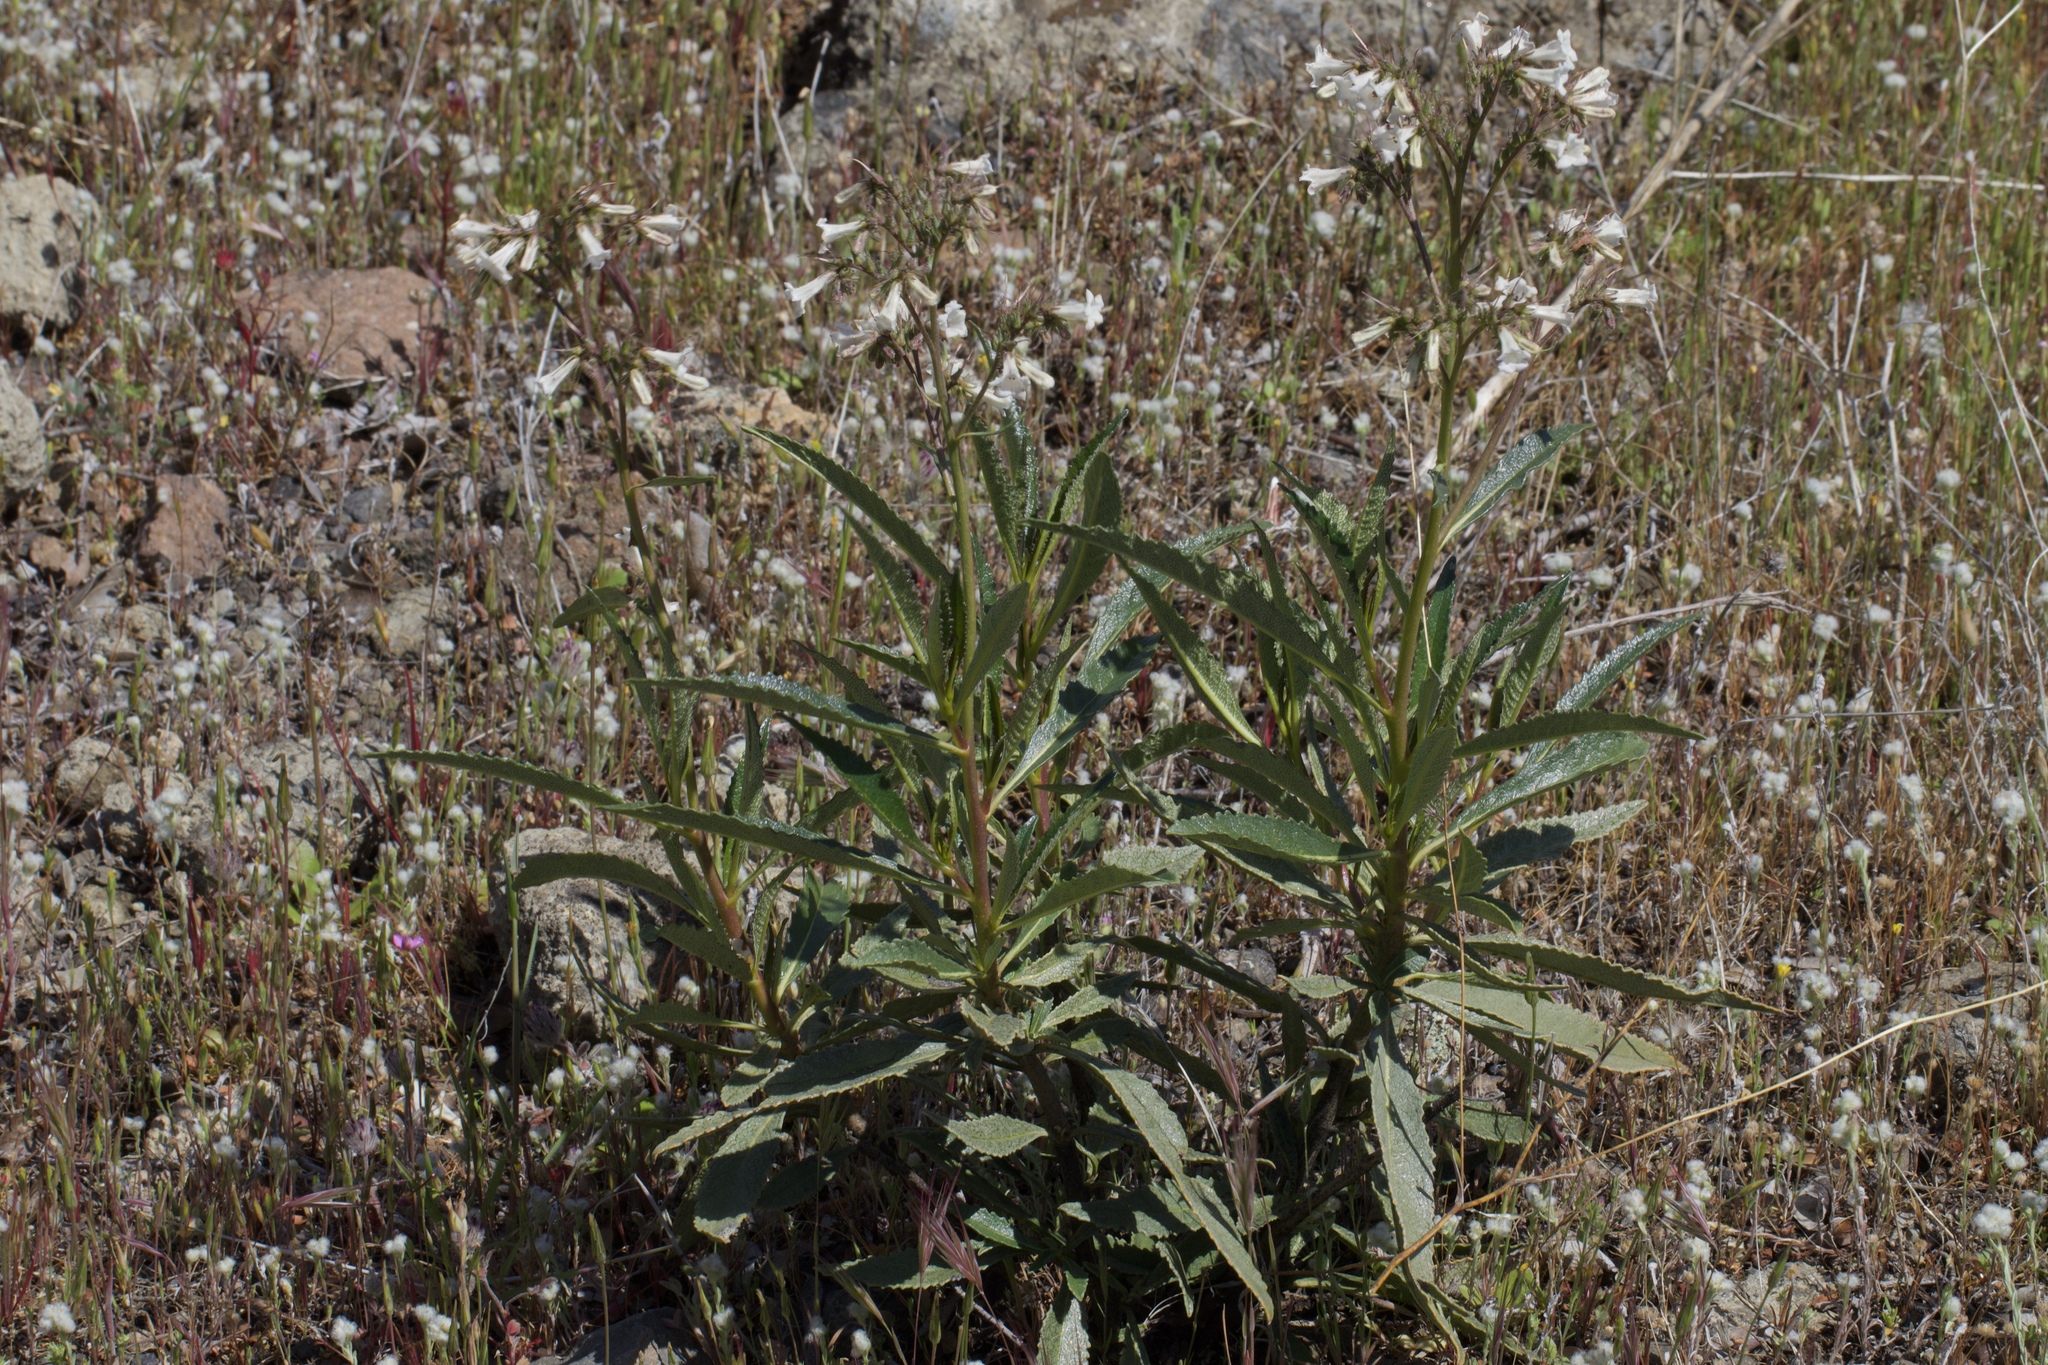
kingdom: Plantae
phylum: Tracheophyta
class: Magnoliopsida
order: Boraginales
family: Namaceae
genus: Eriodictyon
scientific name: Eriodictyon californicum
